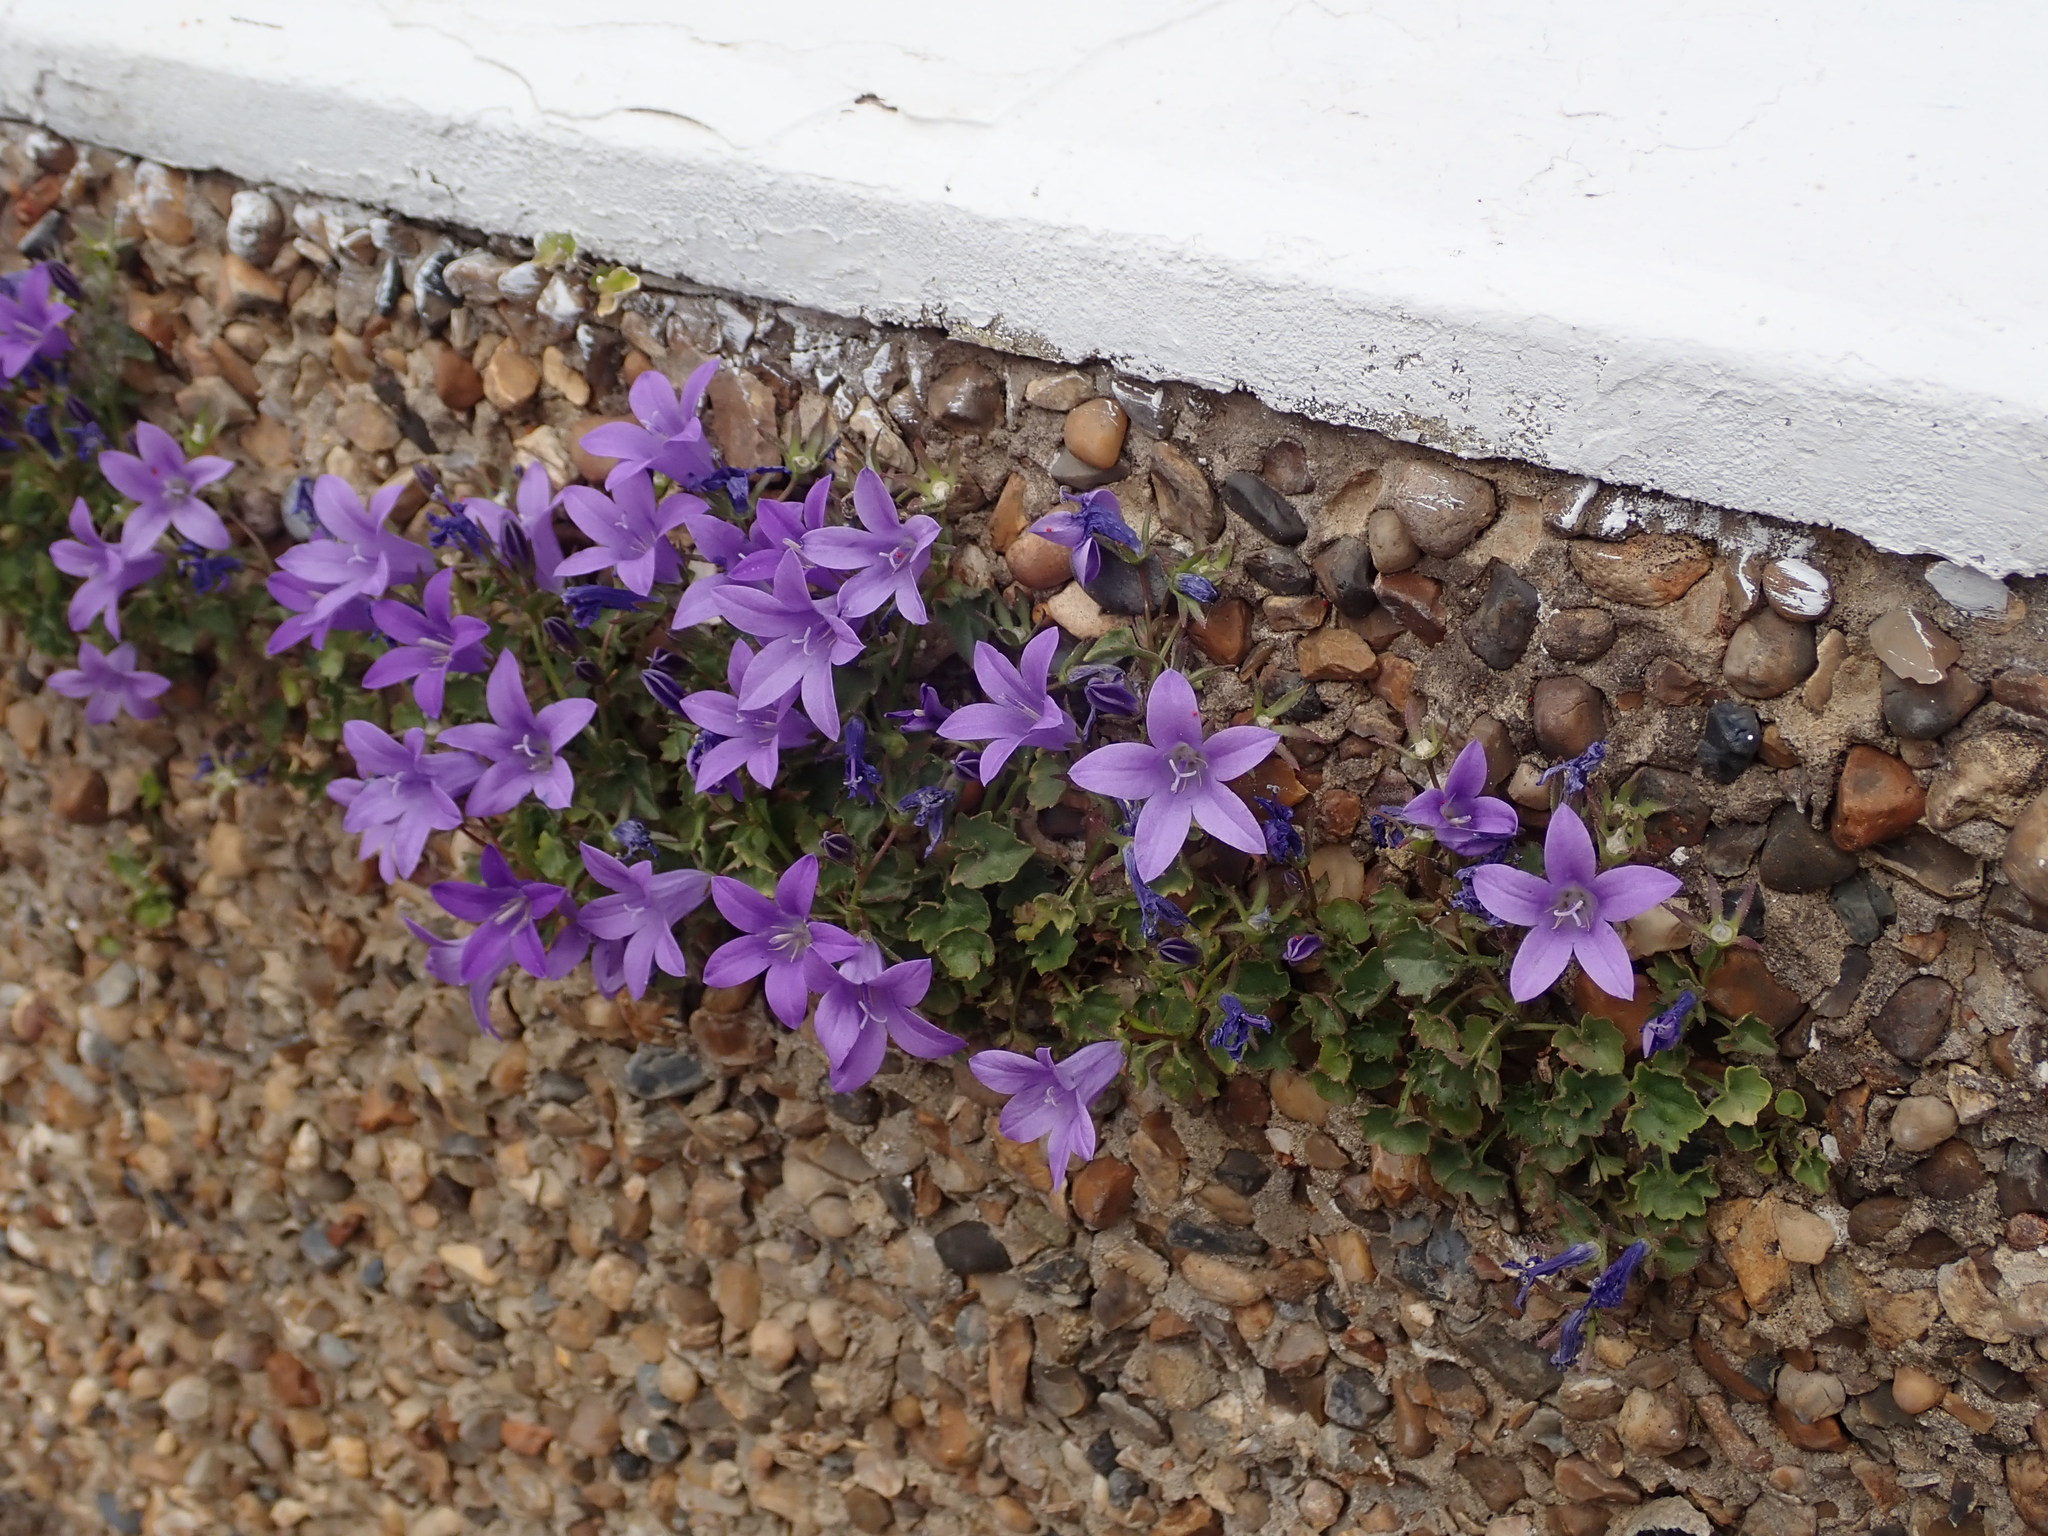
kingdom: Plantae
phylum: Tracheophyta
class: Magnoliopsida
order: Asterales
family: Campanulaceae
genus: Campanula
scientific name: Campanula portenschlagiana
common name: Adria bellflower
